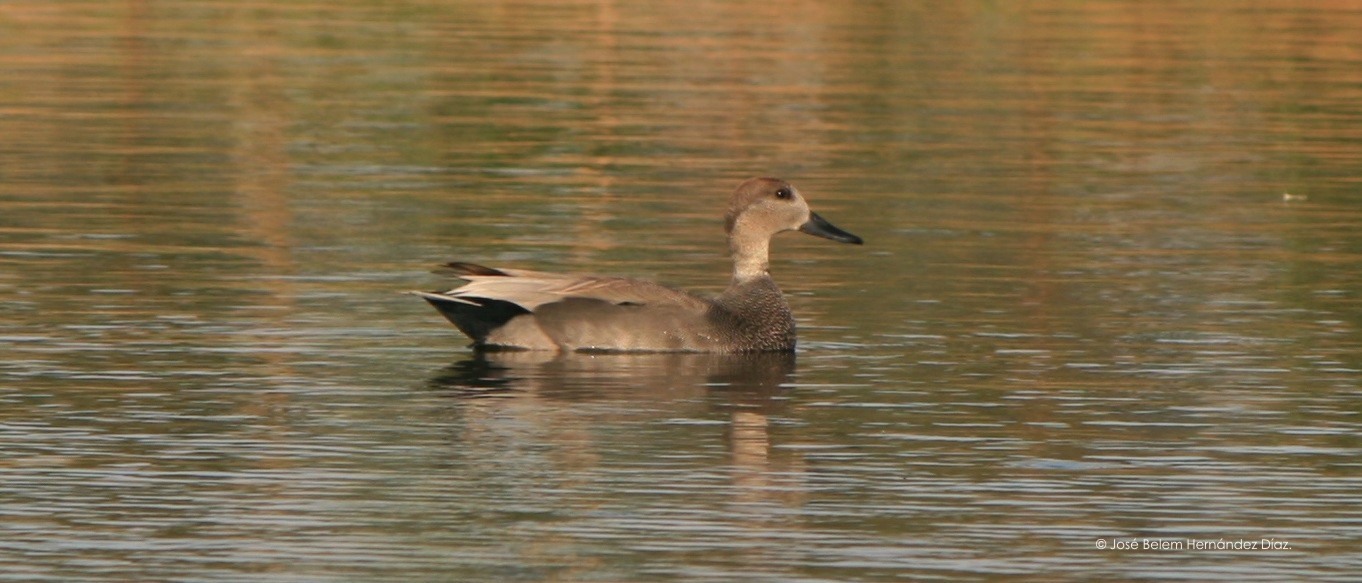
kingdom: Animalia
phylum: Chordata
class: Aves
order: Anseriformes
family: Anatidae
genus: Mareca
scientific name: Mareca strepera
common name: Gadwall
